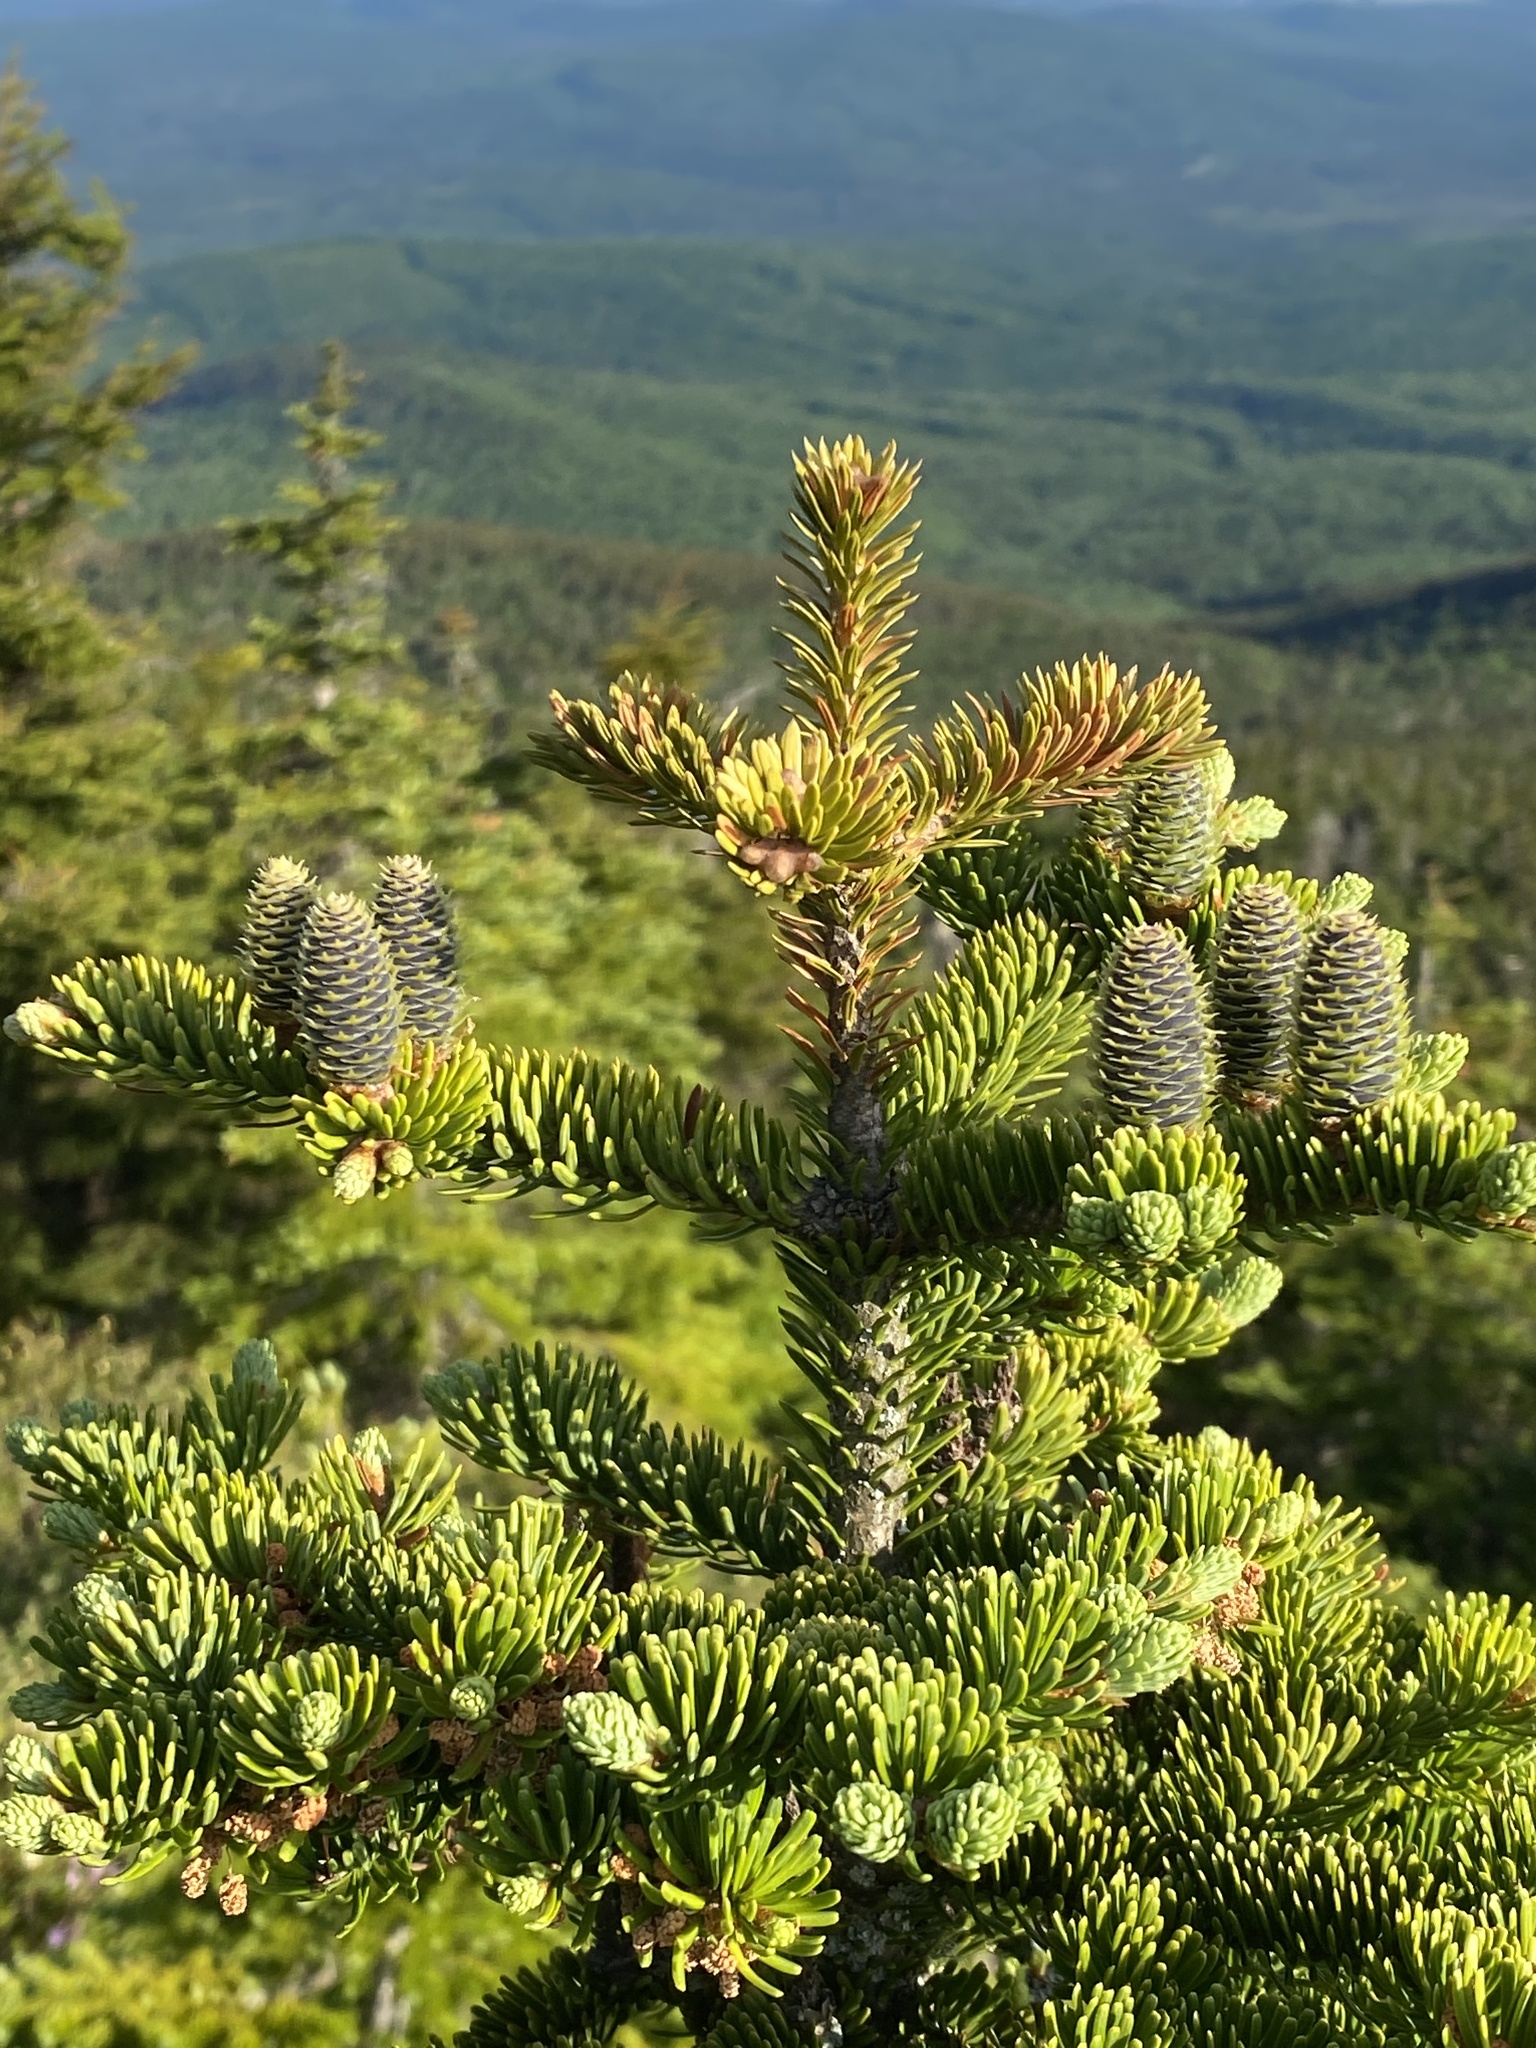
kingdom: Plantae
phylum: Tracheophyta
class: Pinopsida
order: Pinales
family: Pinaceae
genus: Abies
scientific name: Abies balsamea
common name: Balsam fir
